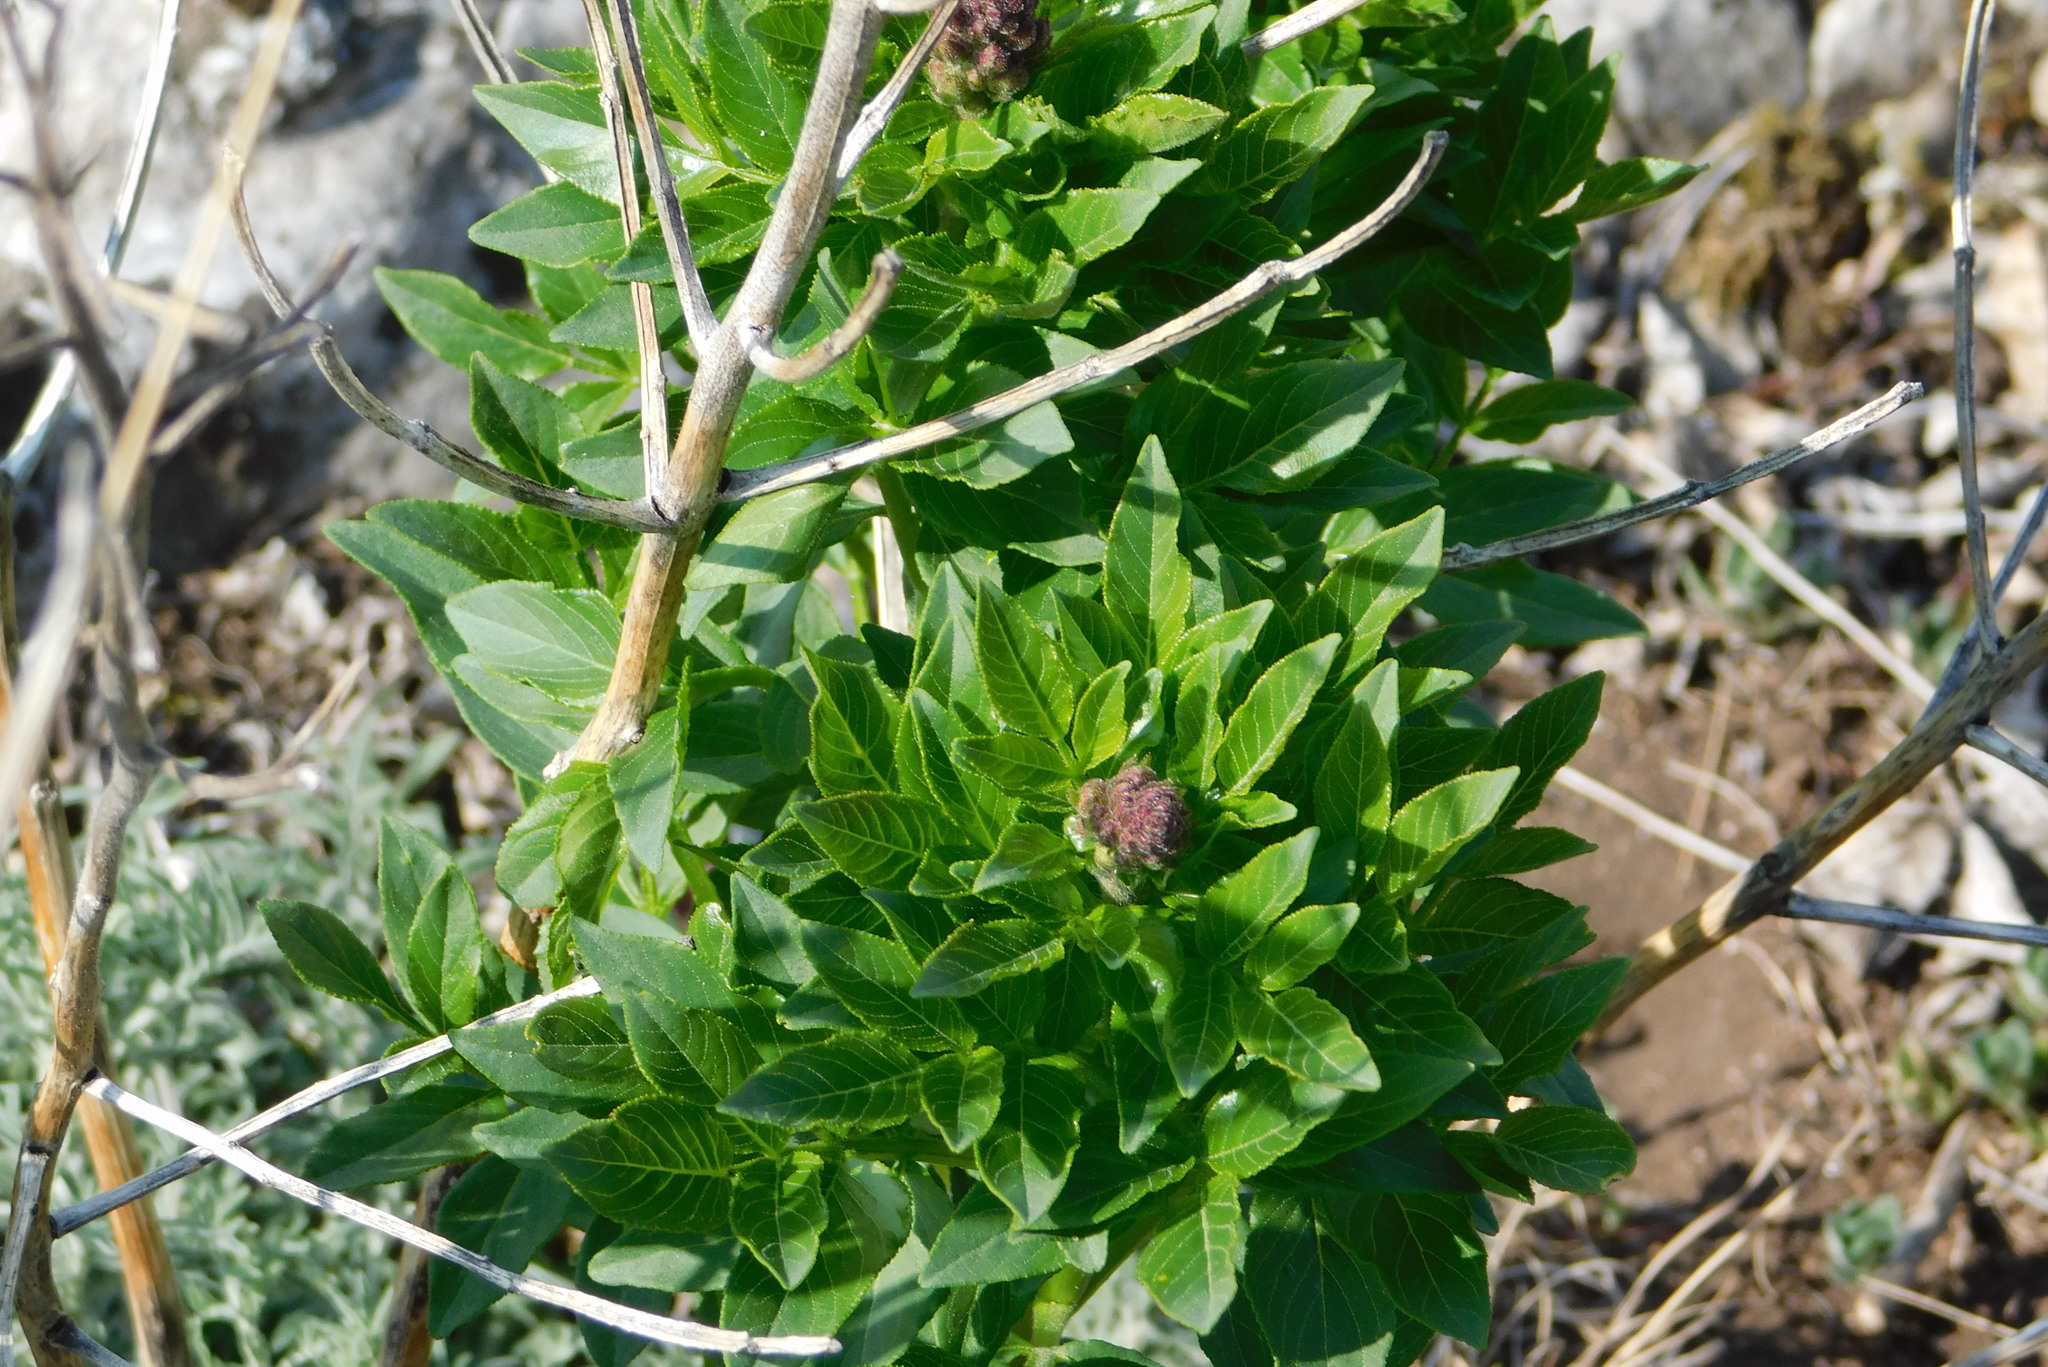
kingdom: Plantae
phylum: Tracheophyta
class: Magnoliopsida
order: Sapindales
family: Rutaceae
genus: Dictamnus
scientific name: Dictamnus albus
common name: Gasplant
